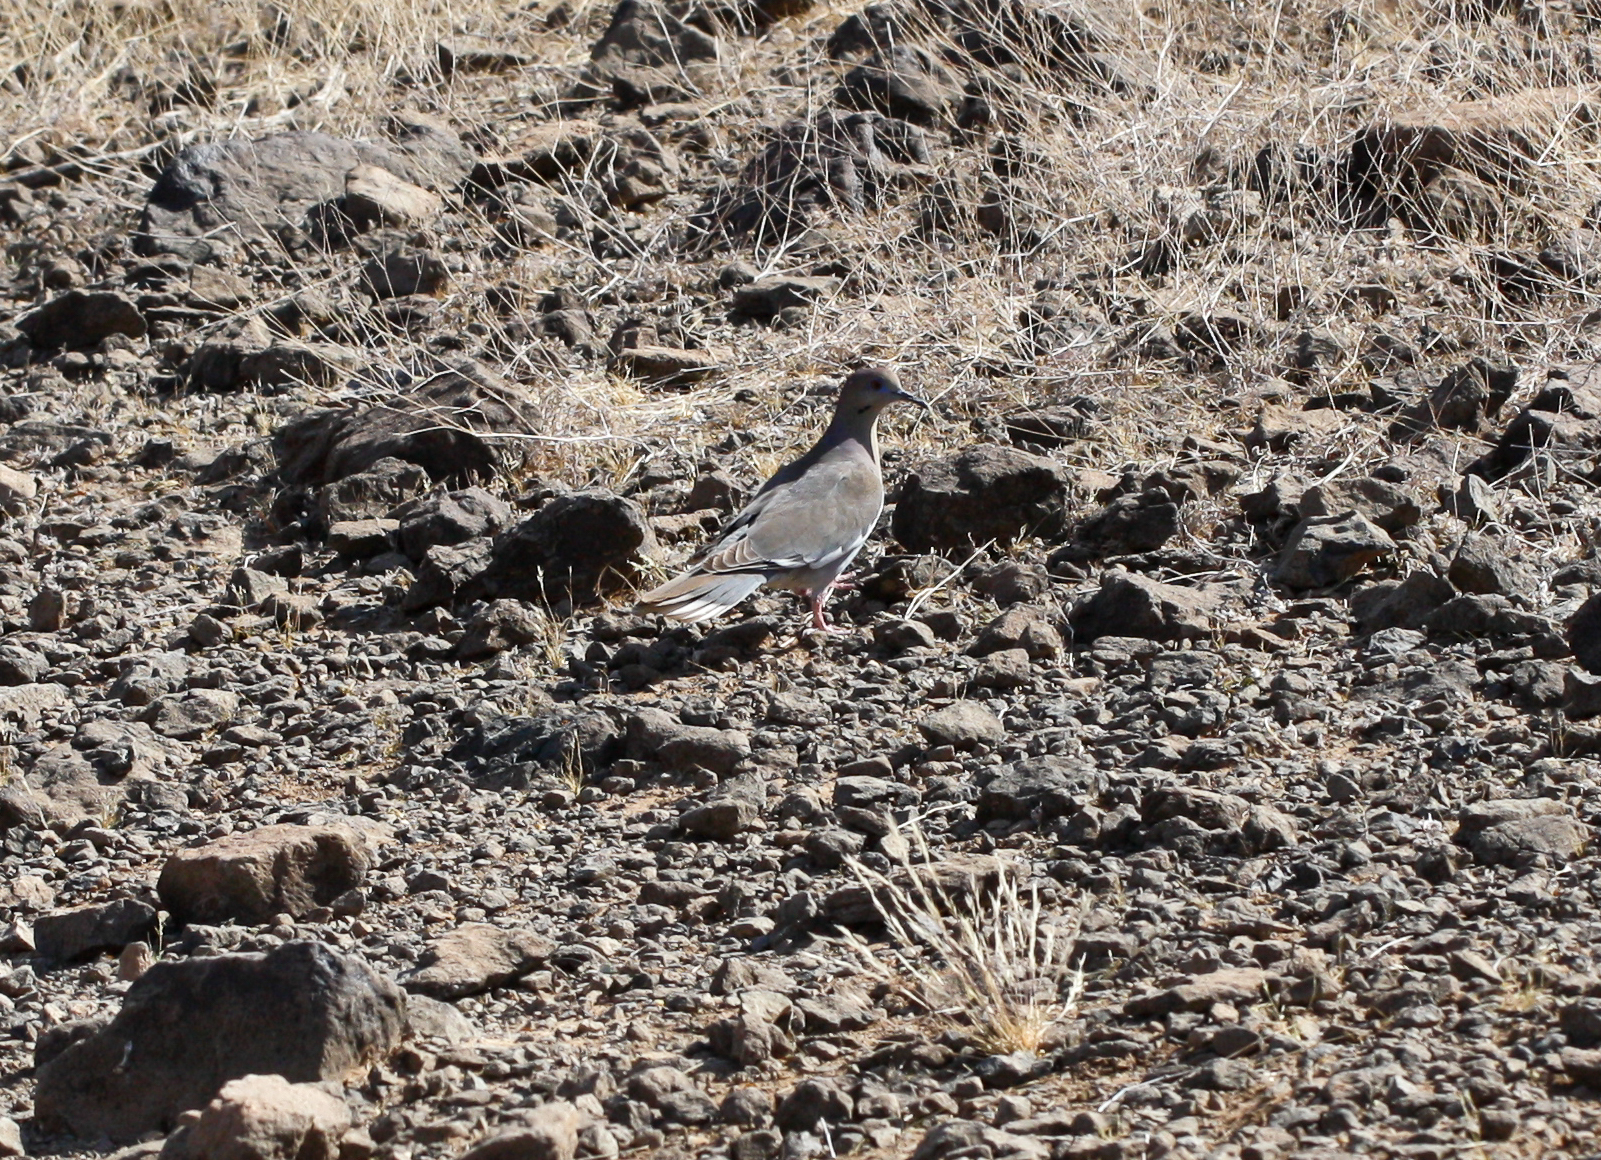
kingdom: Animalia
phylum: Chordata
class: Aves
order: Columbiformes
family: Columbidae
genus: Zenaida
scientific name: Zenaida asiatica
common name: White-winged dove
